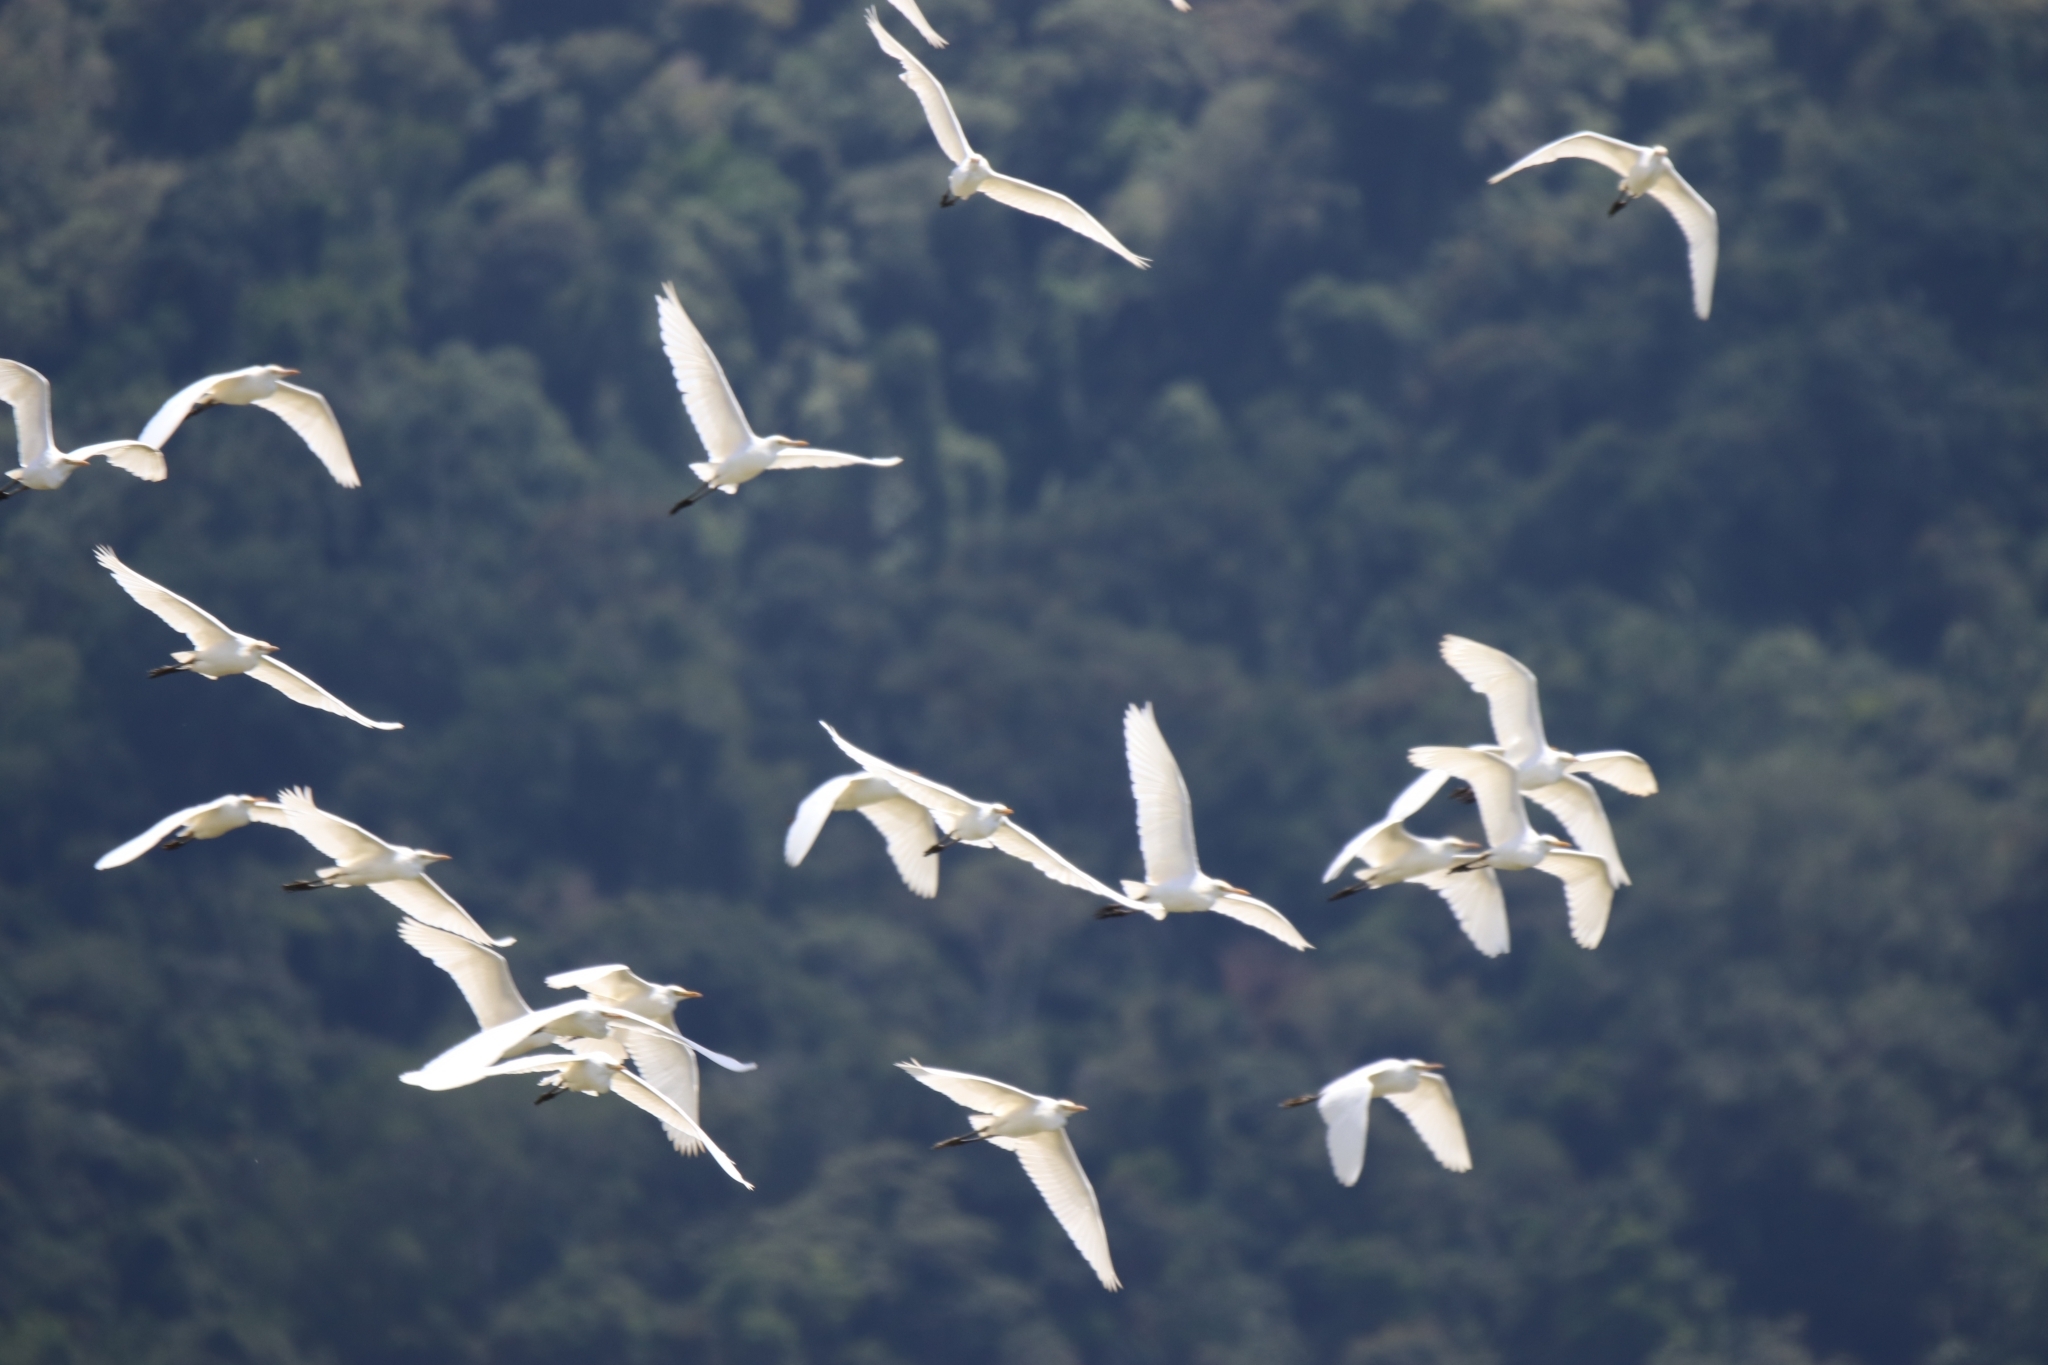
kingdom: Animalia
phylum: Chordata
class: Aves
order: Pelecaniformes
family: Ardeidae
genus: Bubulcus
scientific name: Bubulcus coromandus
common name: Eastern cattle egret
